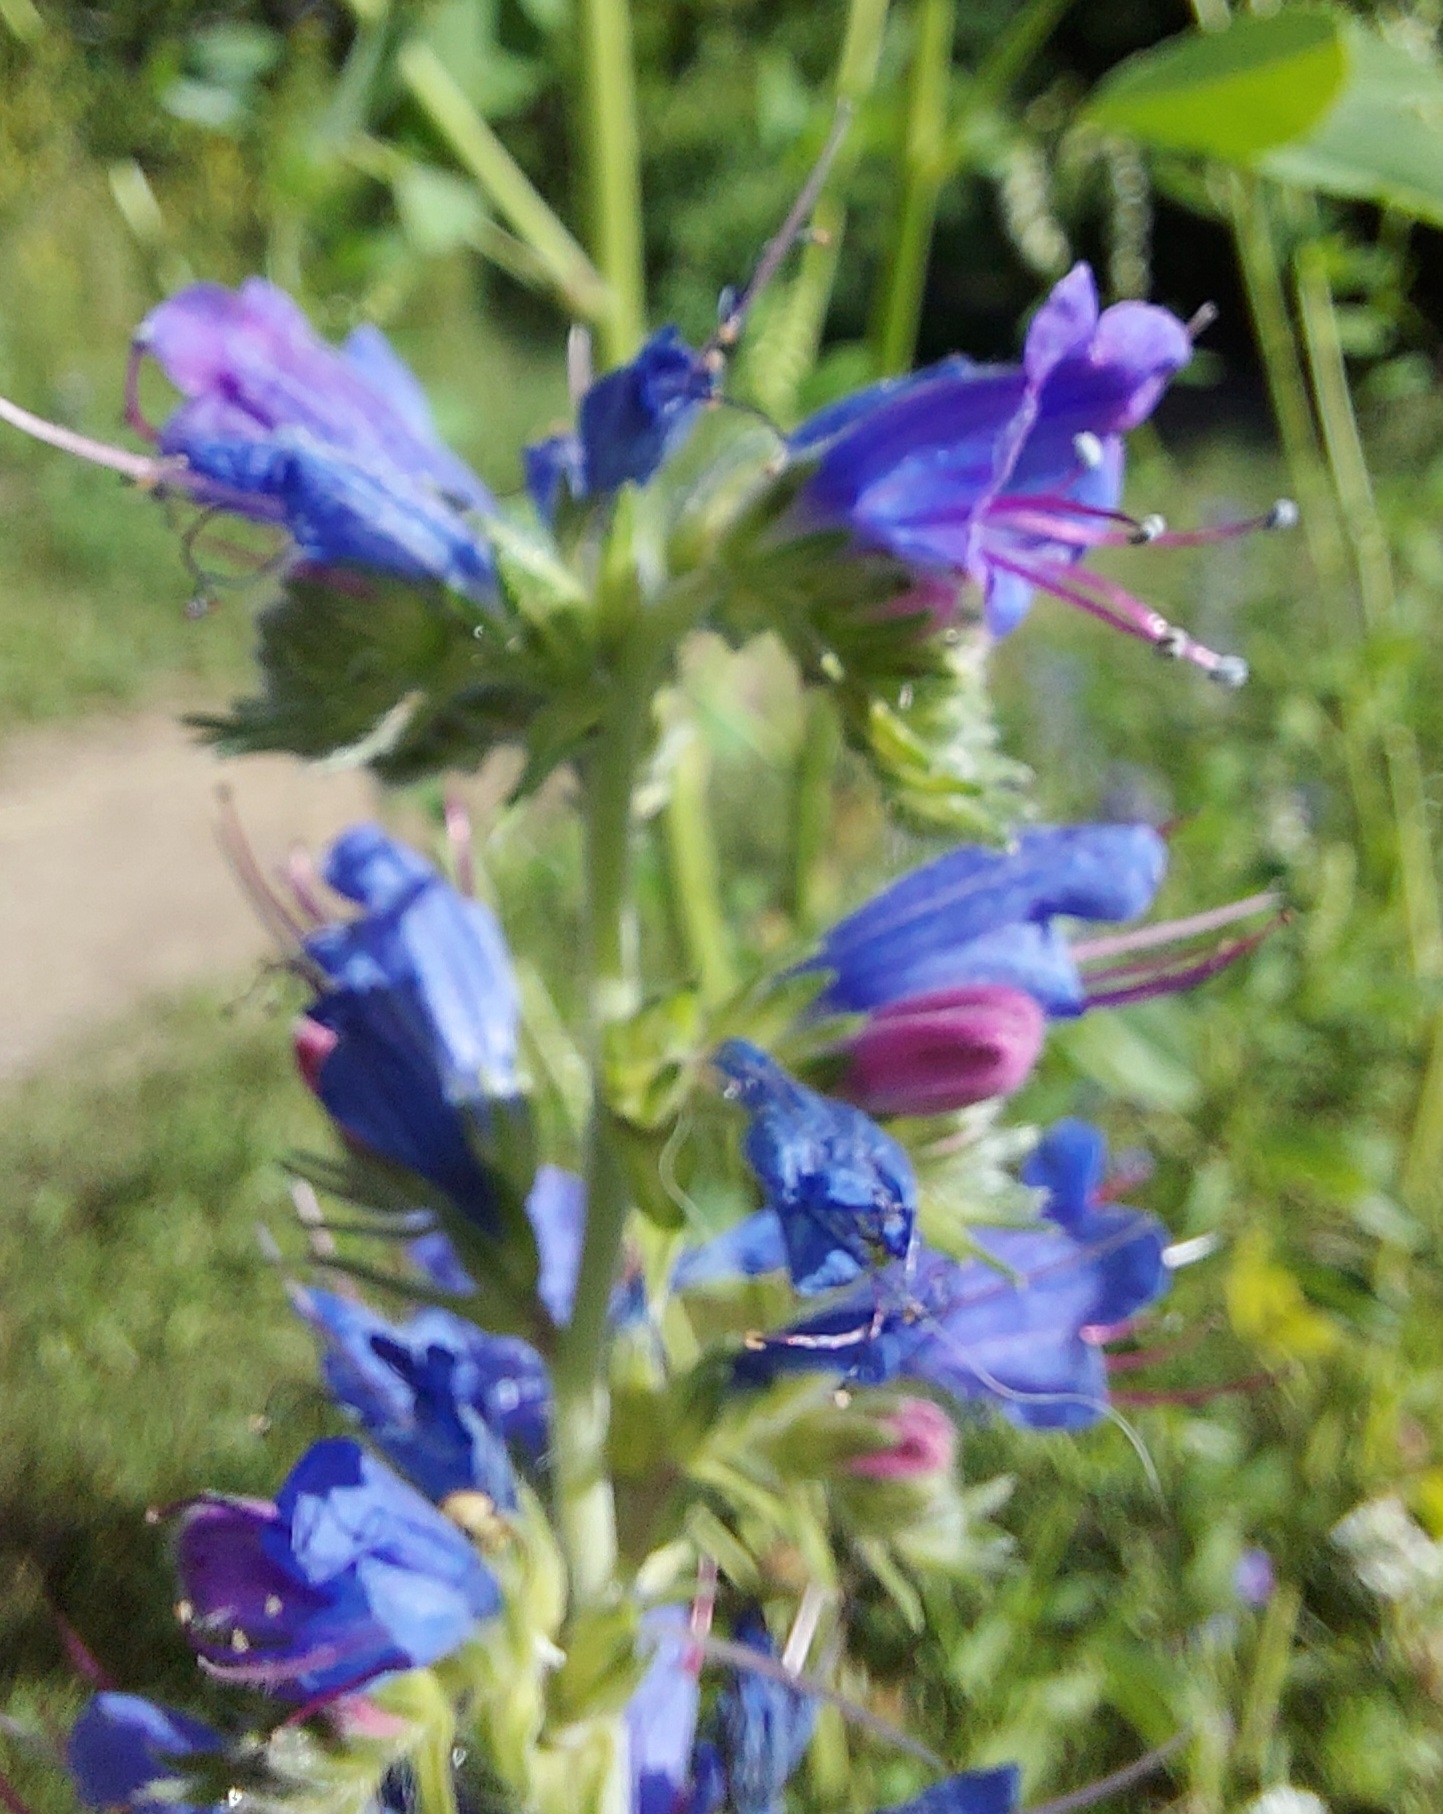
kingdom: Plantae
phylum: Tracheophyta
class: Magnoliopsida
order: Boraginales
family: Boraginaceae
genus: Echium
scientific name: Echium vulgare
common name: Common viper's bugloss
